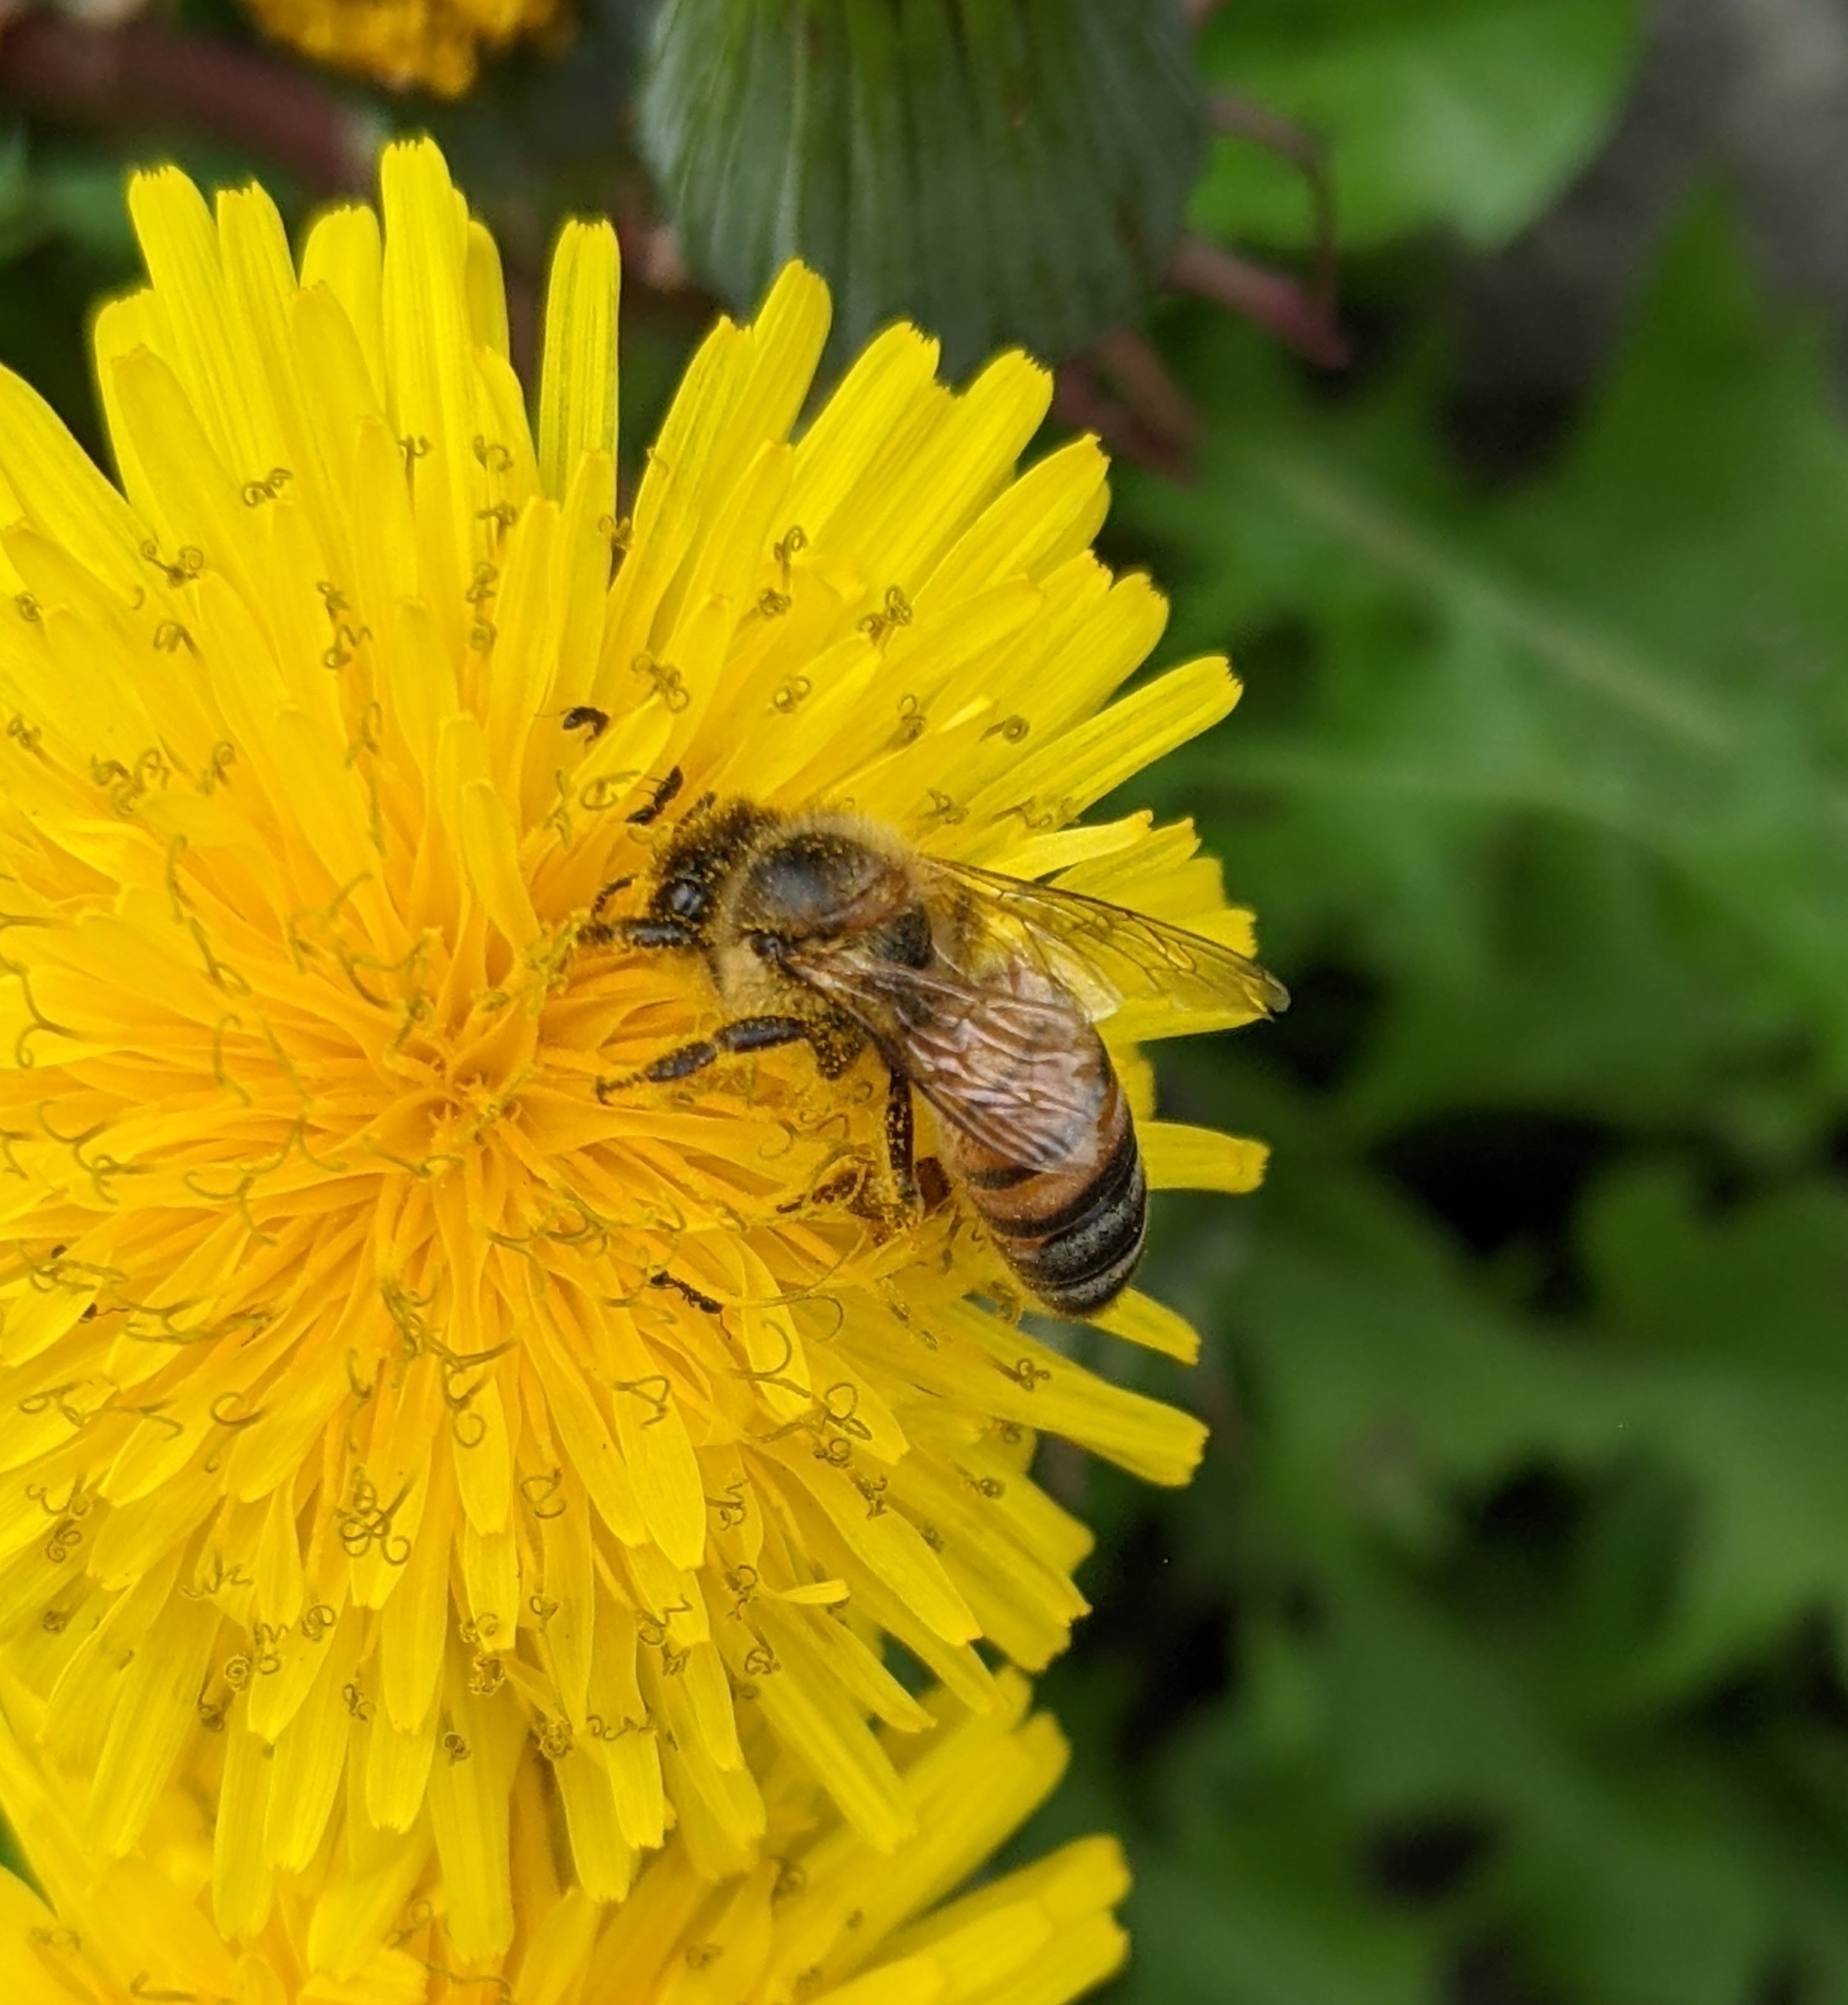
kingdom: Animalia
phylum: Arthropoda
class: Insecta
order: Hymenoptera
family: Apidae
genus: Apis
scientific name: Apis mellifera
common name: Honey bee
